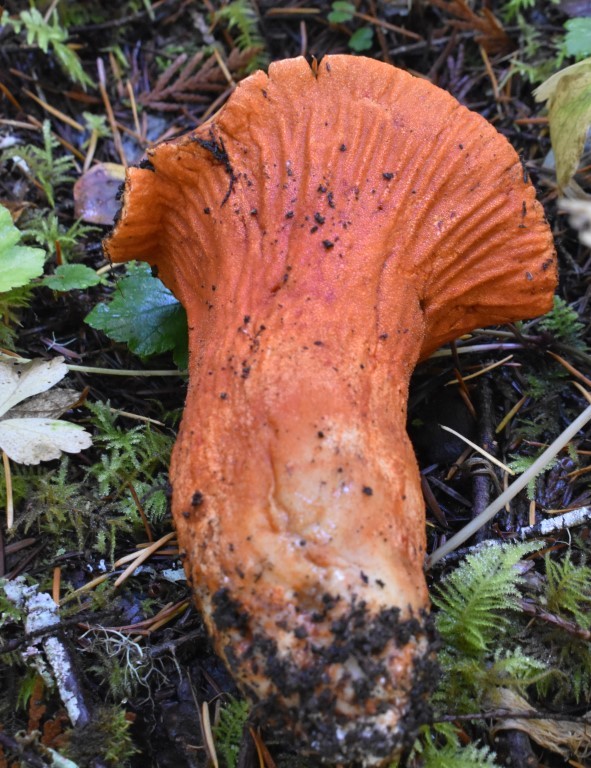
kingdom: Fungi
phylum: Ascomycota
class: Sordariomycetes
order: Hypocreales
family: Hypocreaceae
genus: Hypomyces
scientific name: Hypomyces lactifluorum
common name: Lobster mushroom
